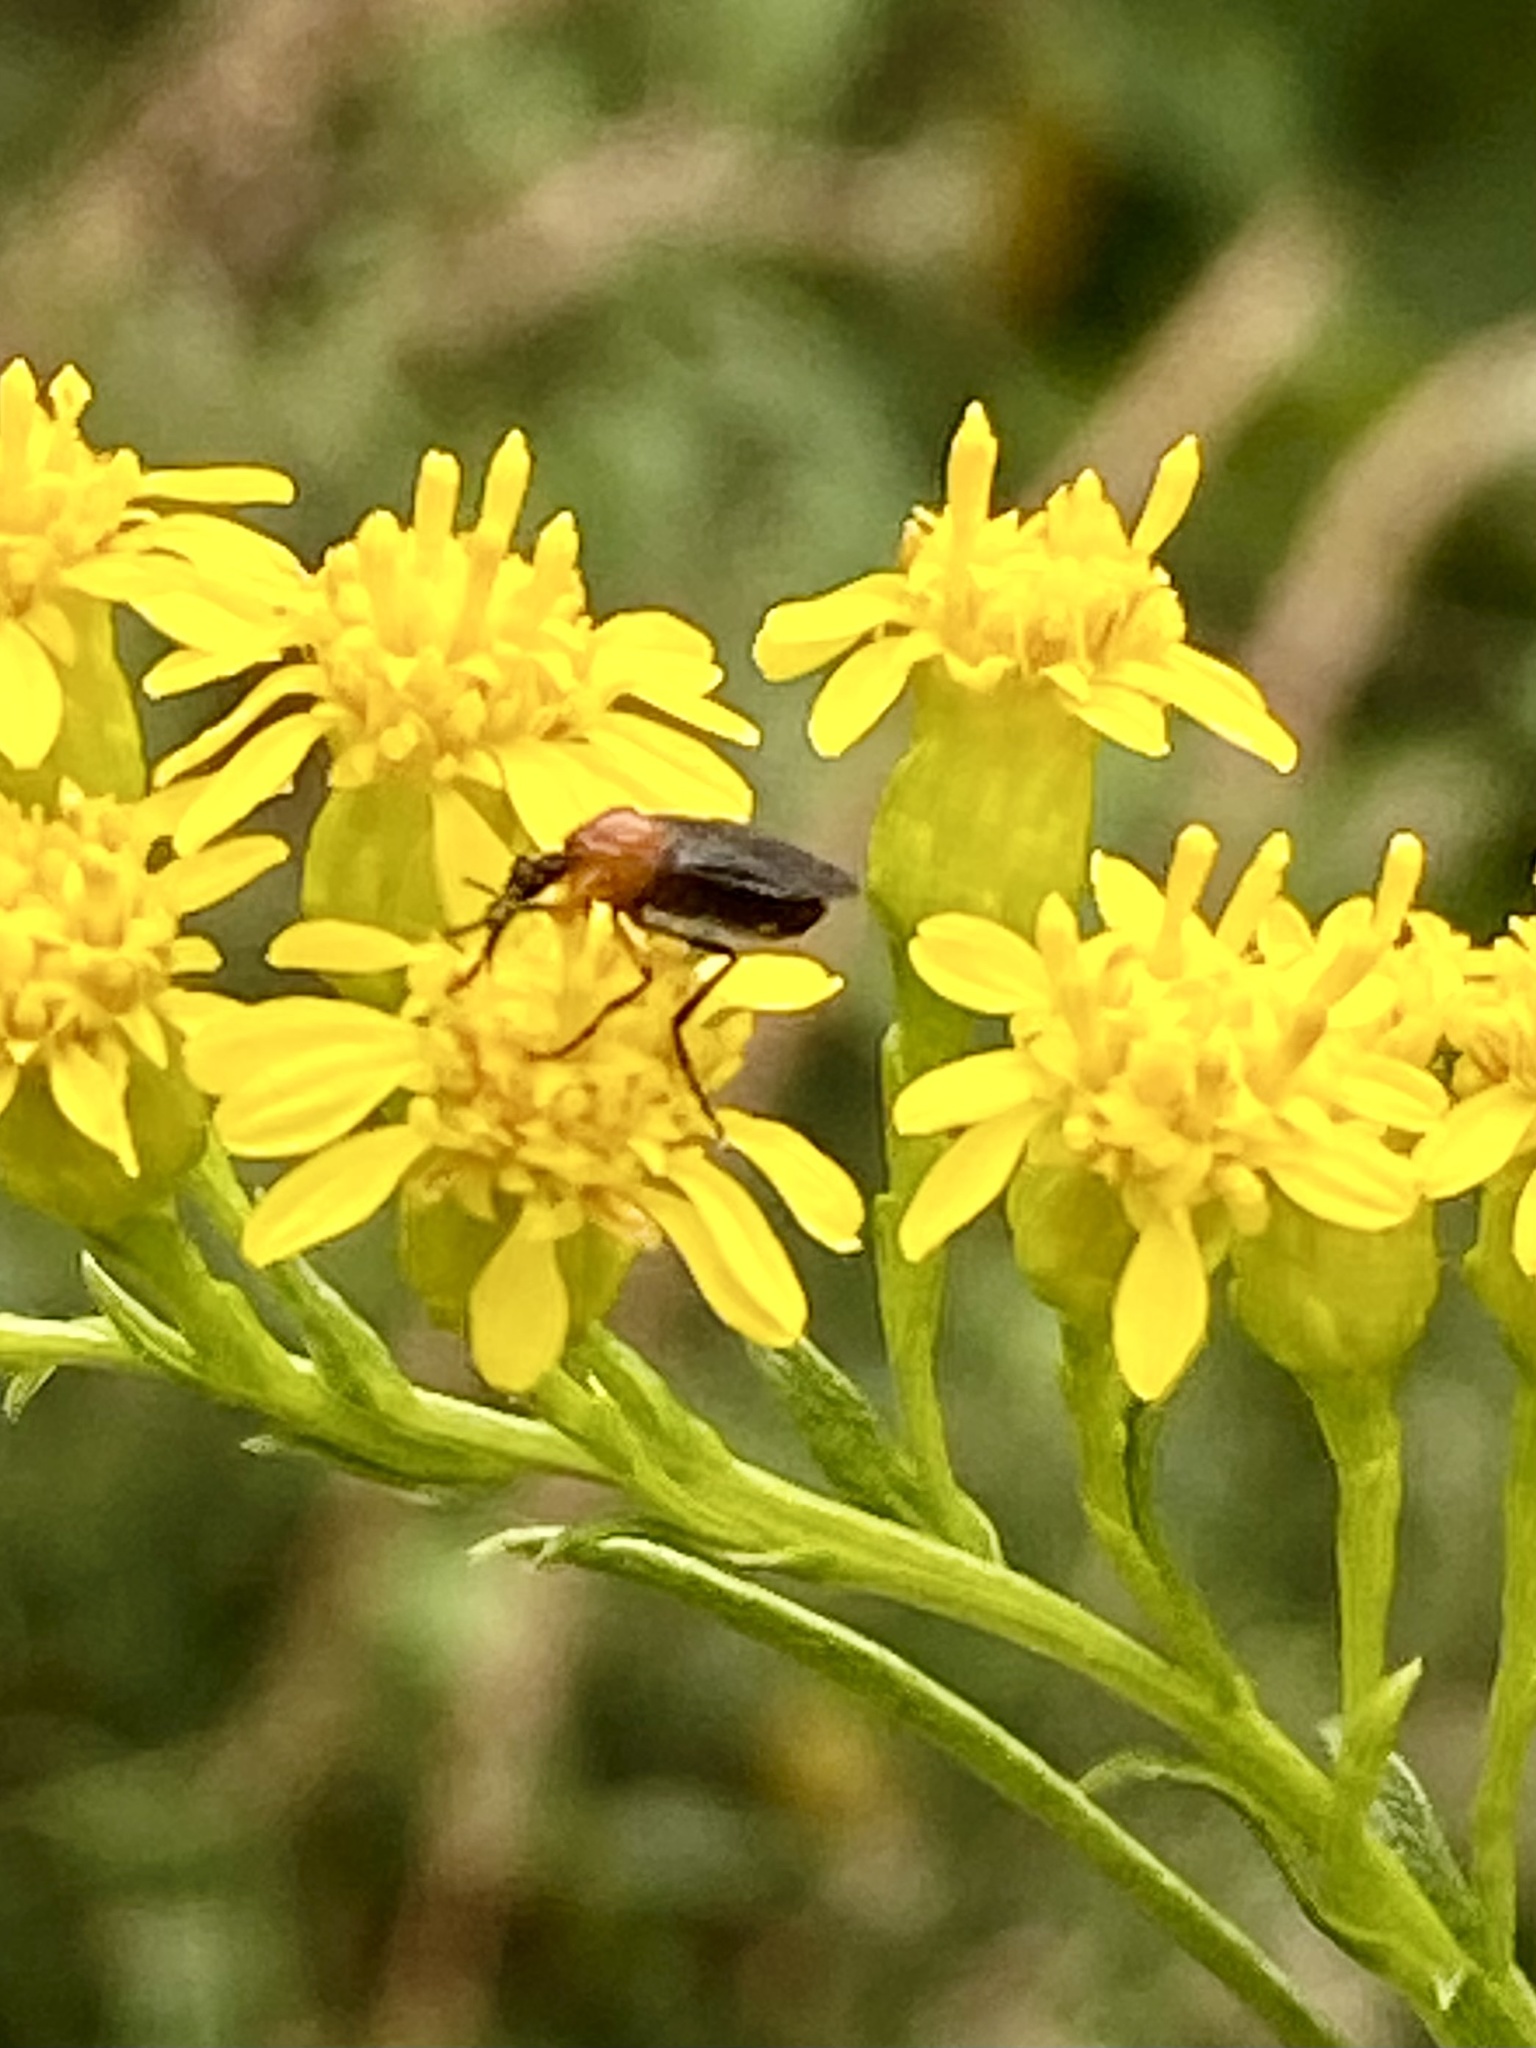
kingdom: Animalia
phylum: Arthropoda
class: Insecta
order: Diptera
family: Bibionidae
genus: Dilophus
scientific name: Dilophus spinipes
